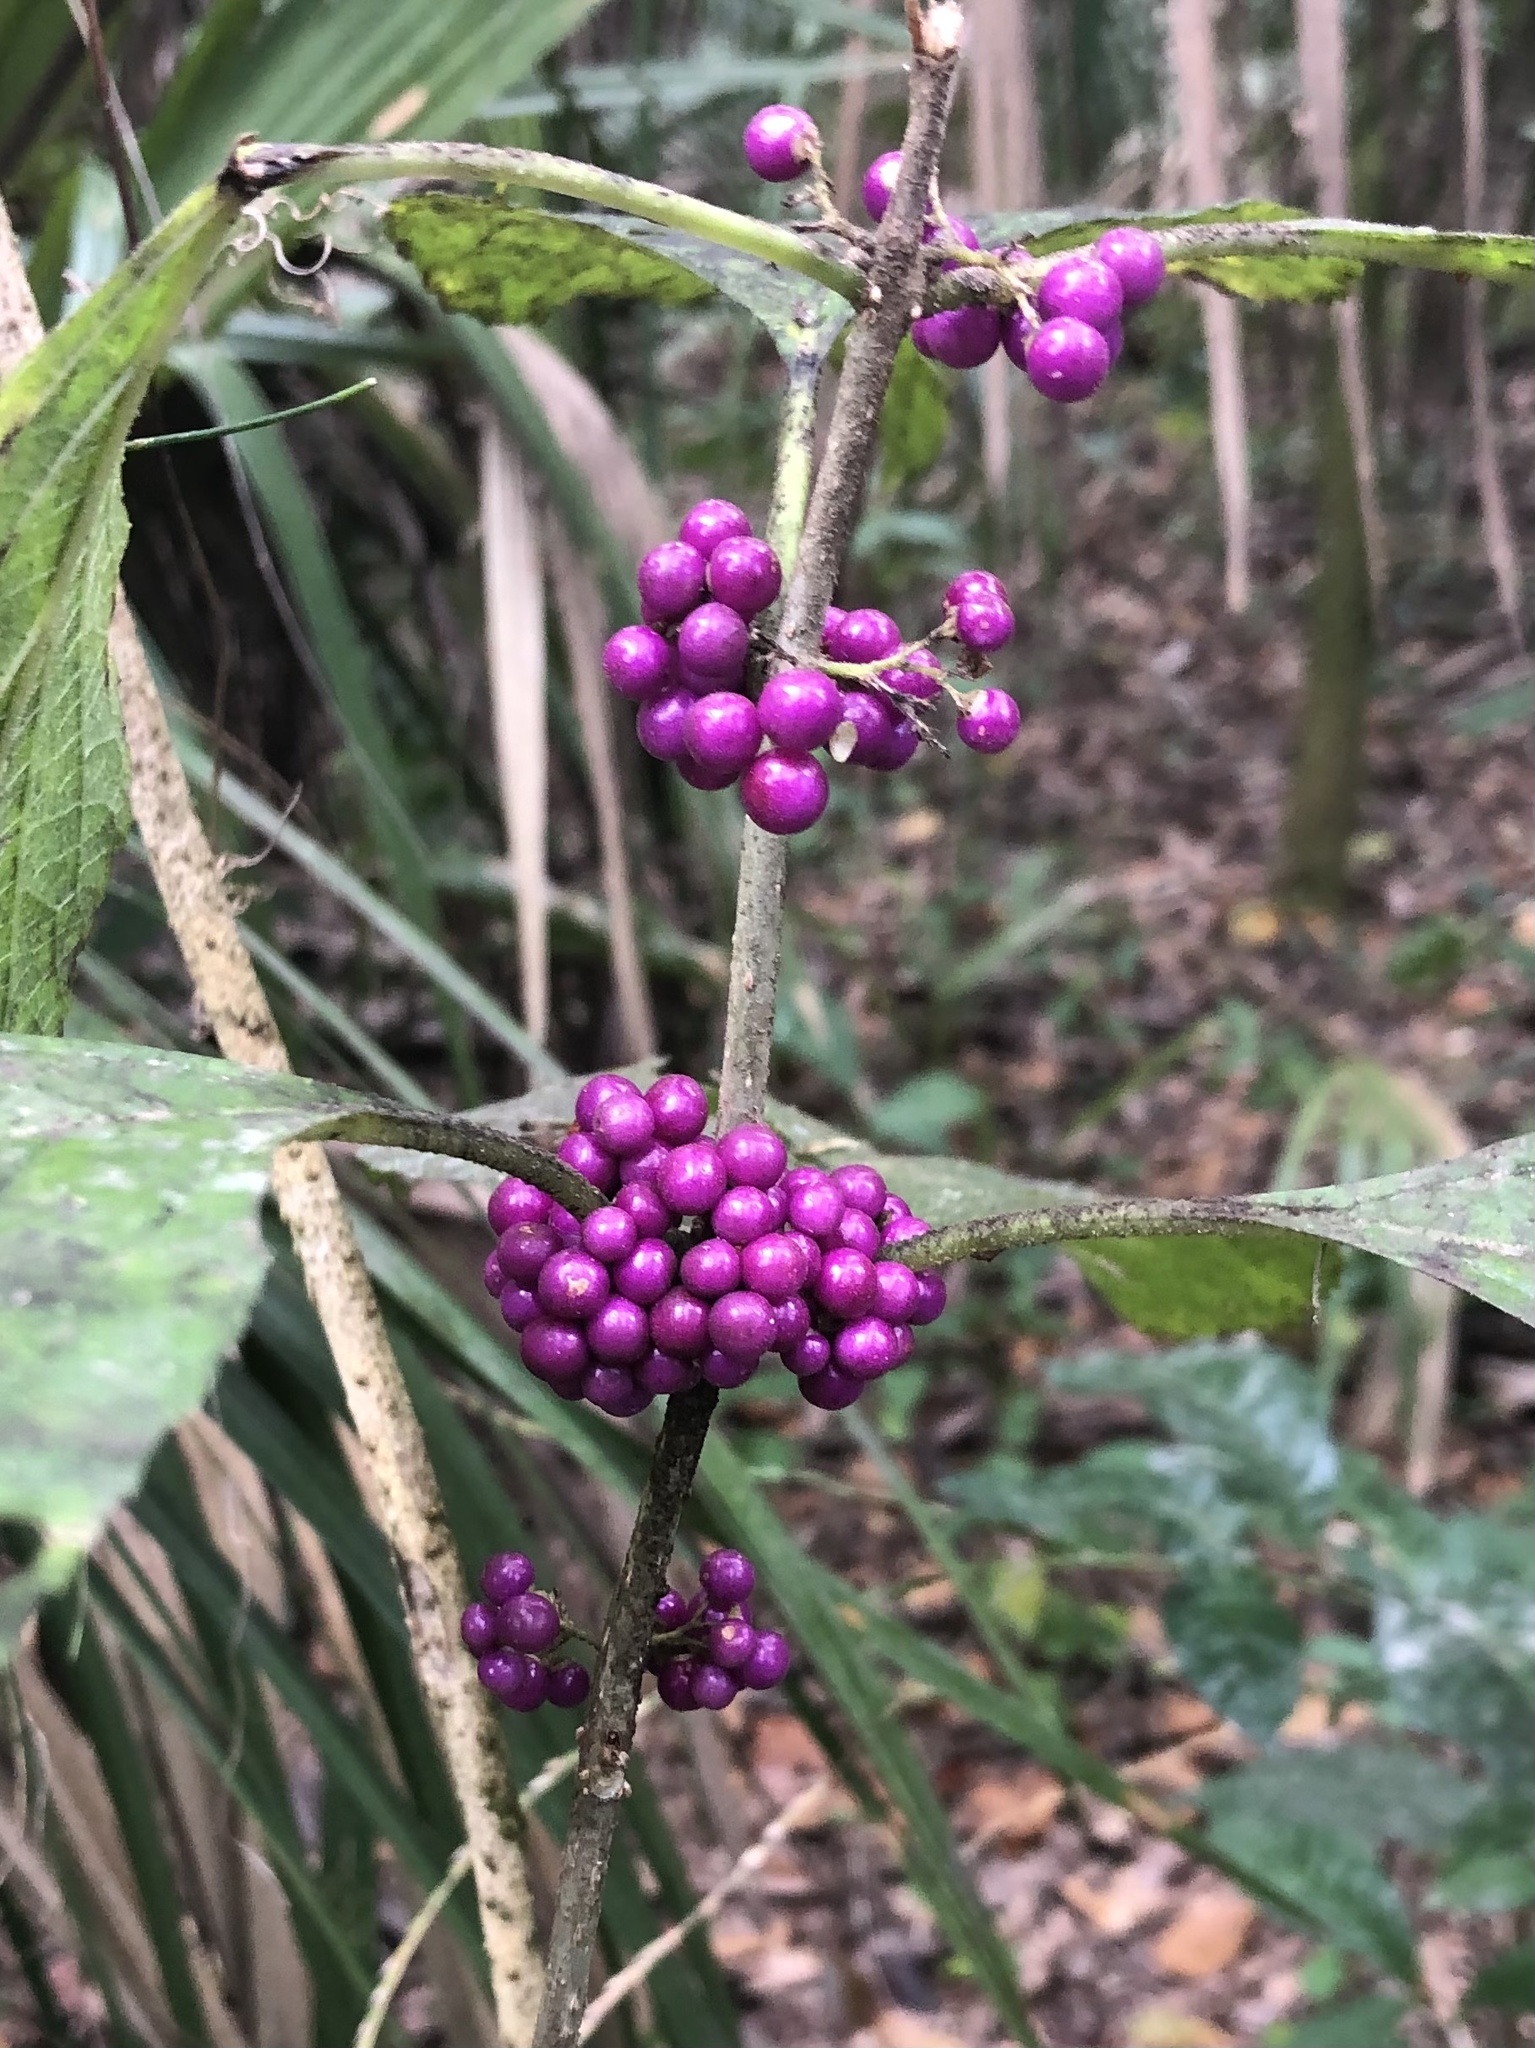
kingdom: Plantae
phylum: Tracheophyta
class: Magnoliopsida
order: Lamiales
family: Lamiaceae
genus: Callicarpa
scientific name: Callicarpa americana
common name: American beautyberry
